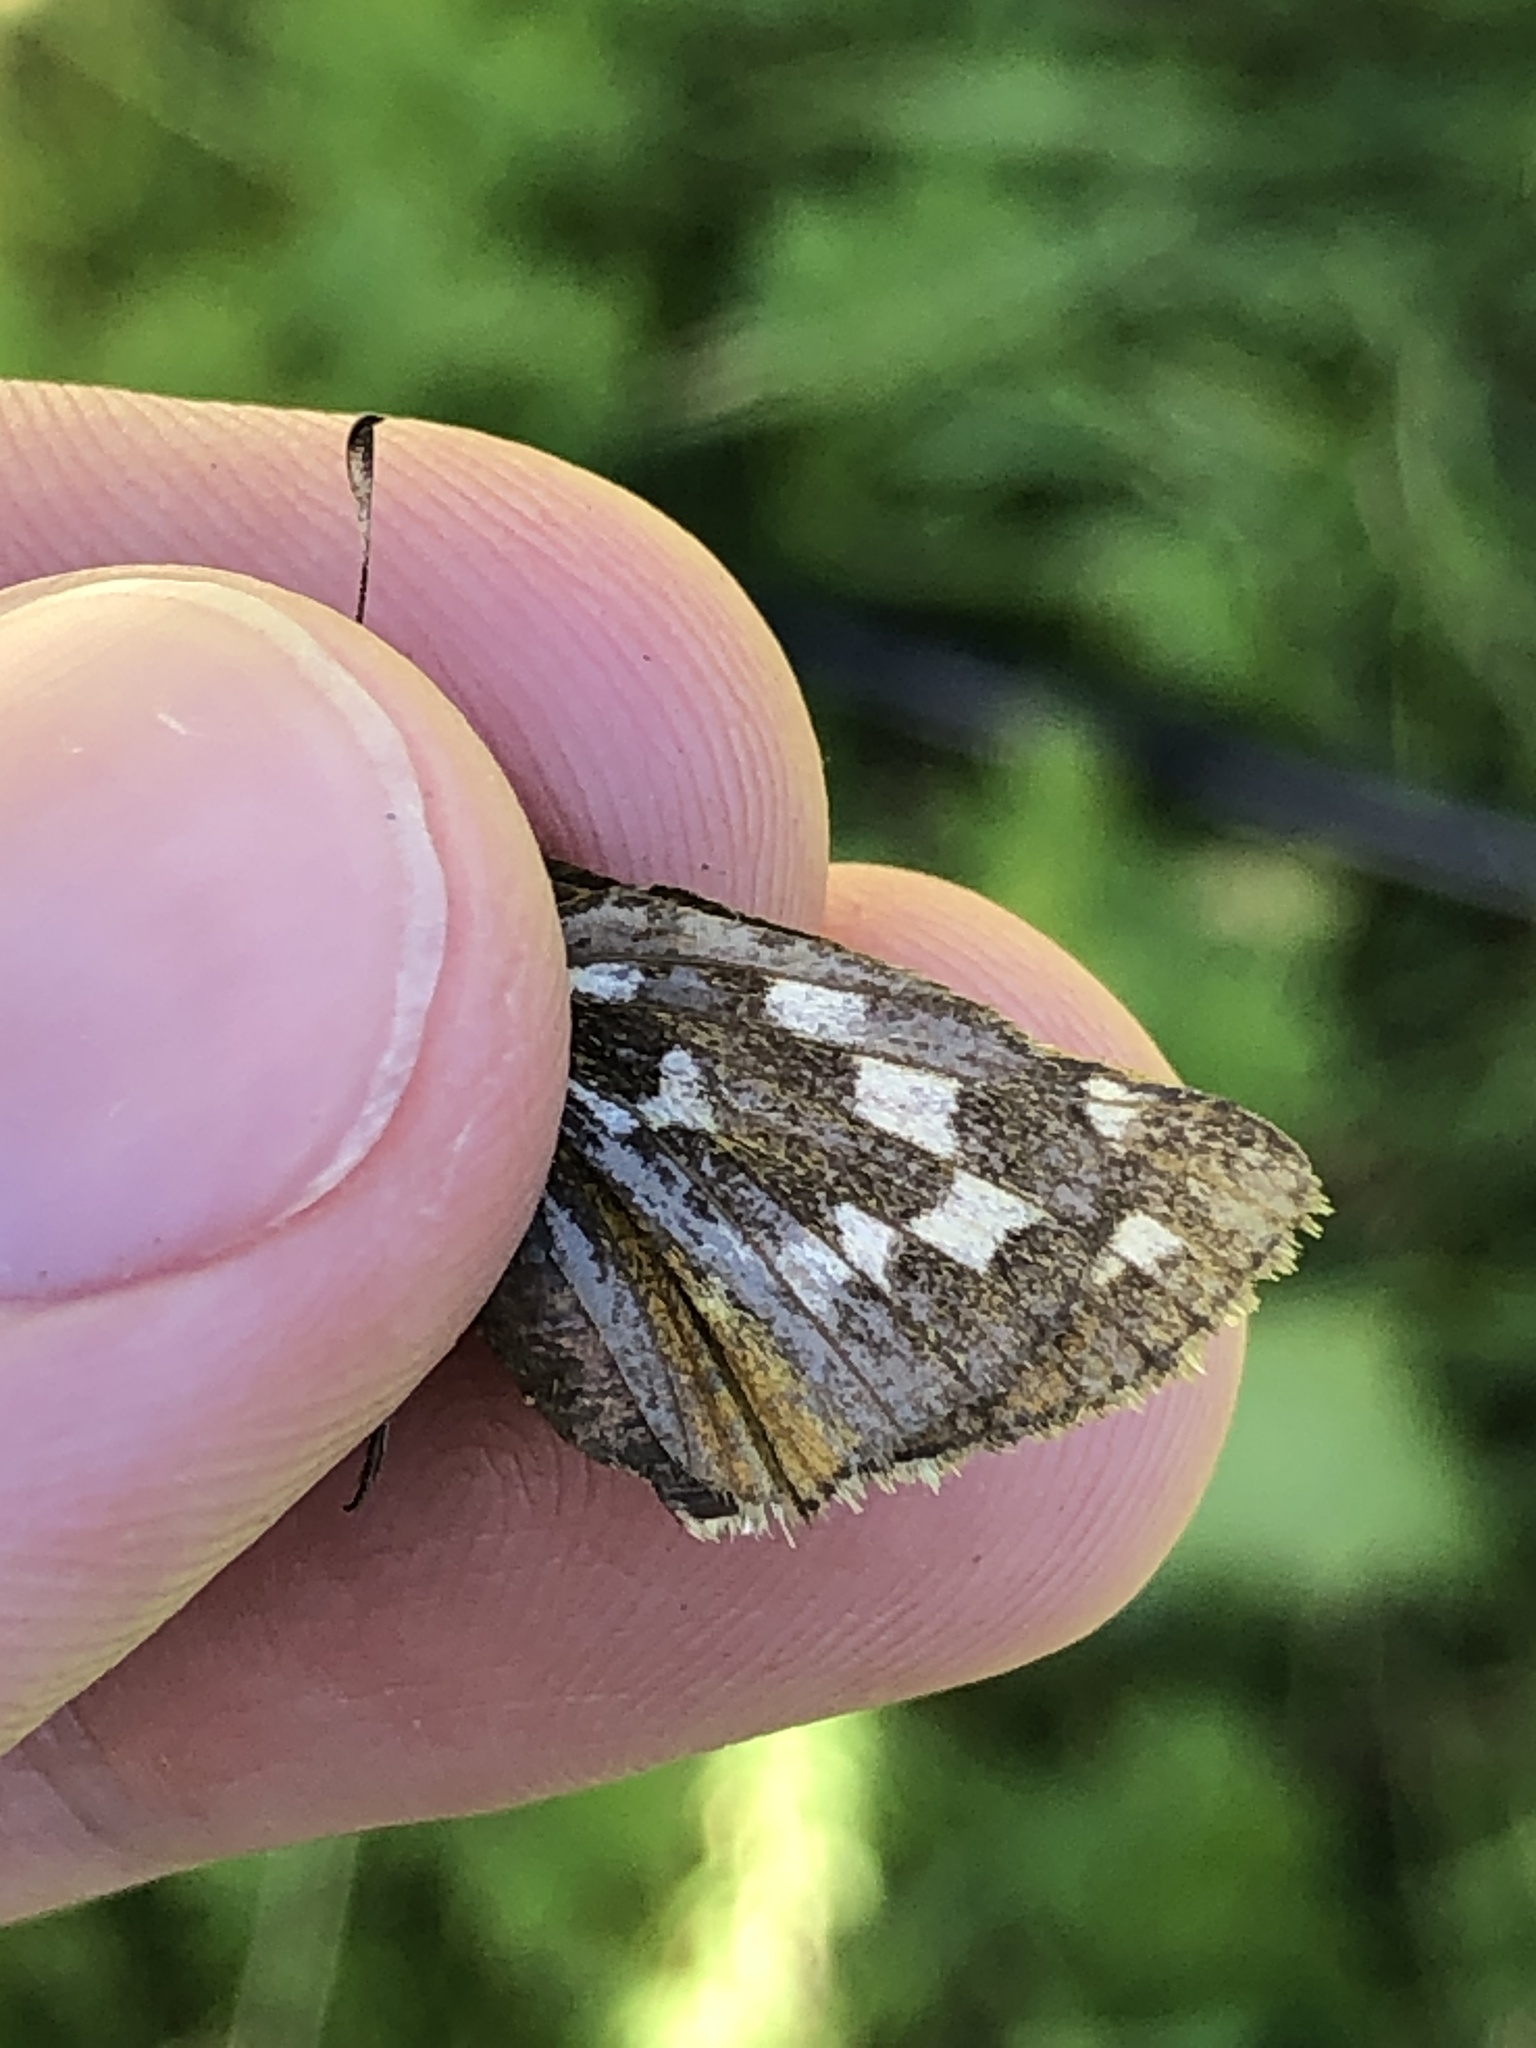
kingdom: Animalia
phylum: Arthropoda
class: Insecta
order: Lepidoptera
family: Hesperiidae
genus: Hesperia
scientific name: Hesperia comma
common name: Common branded skipper
